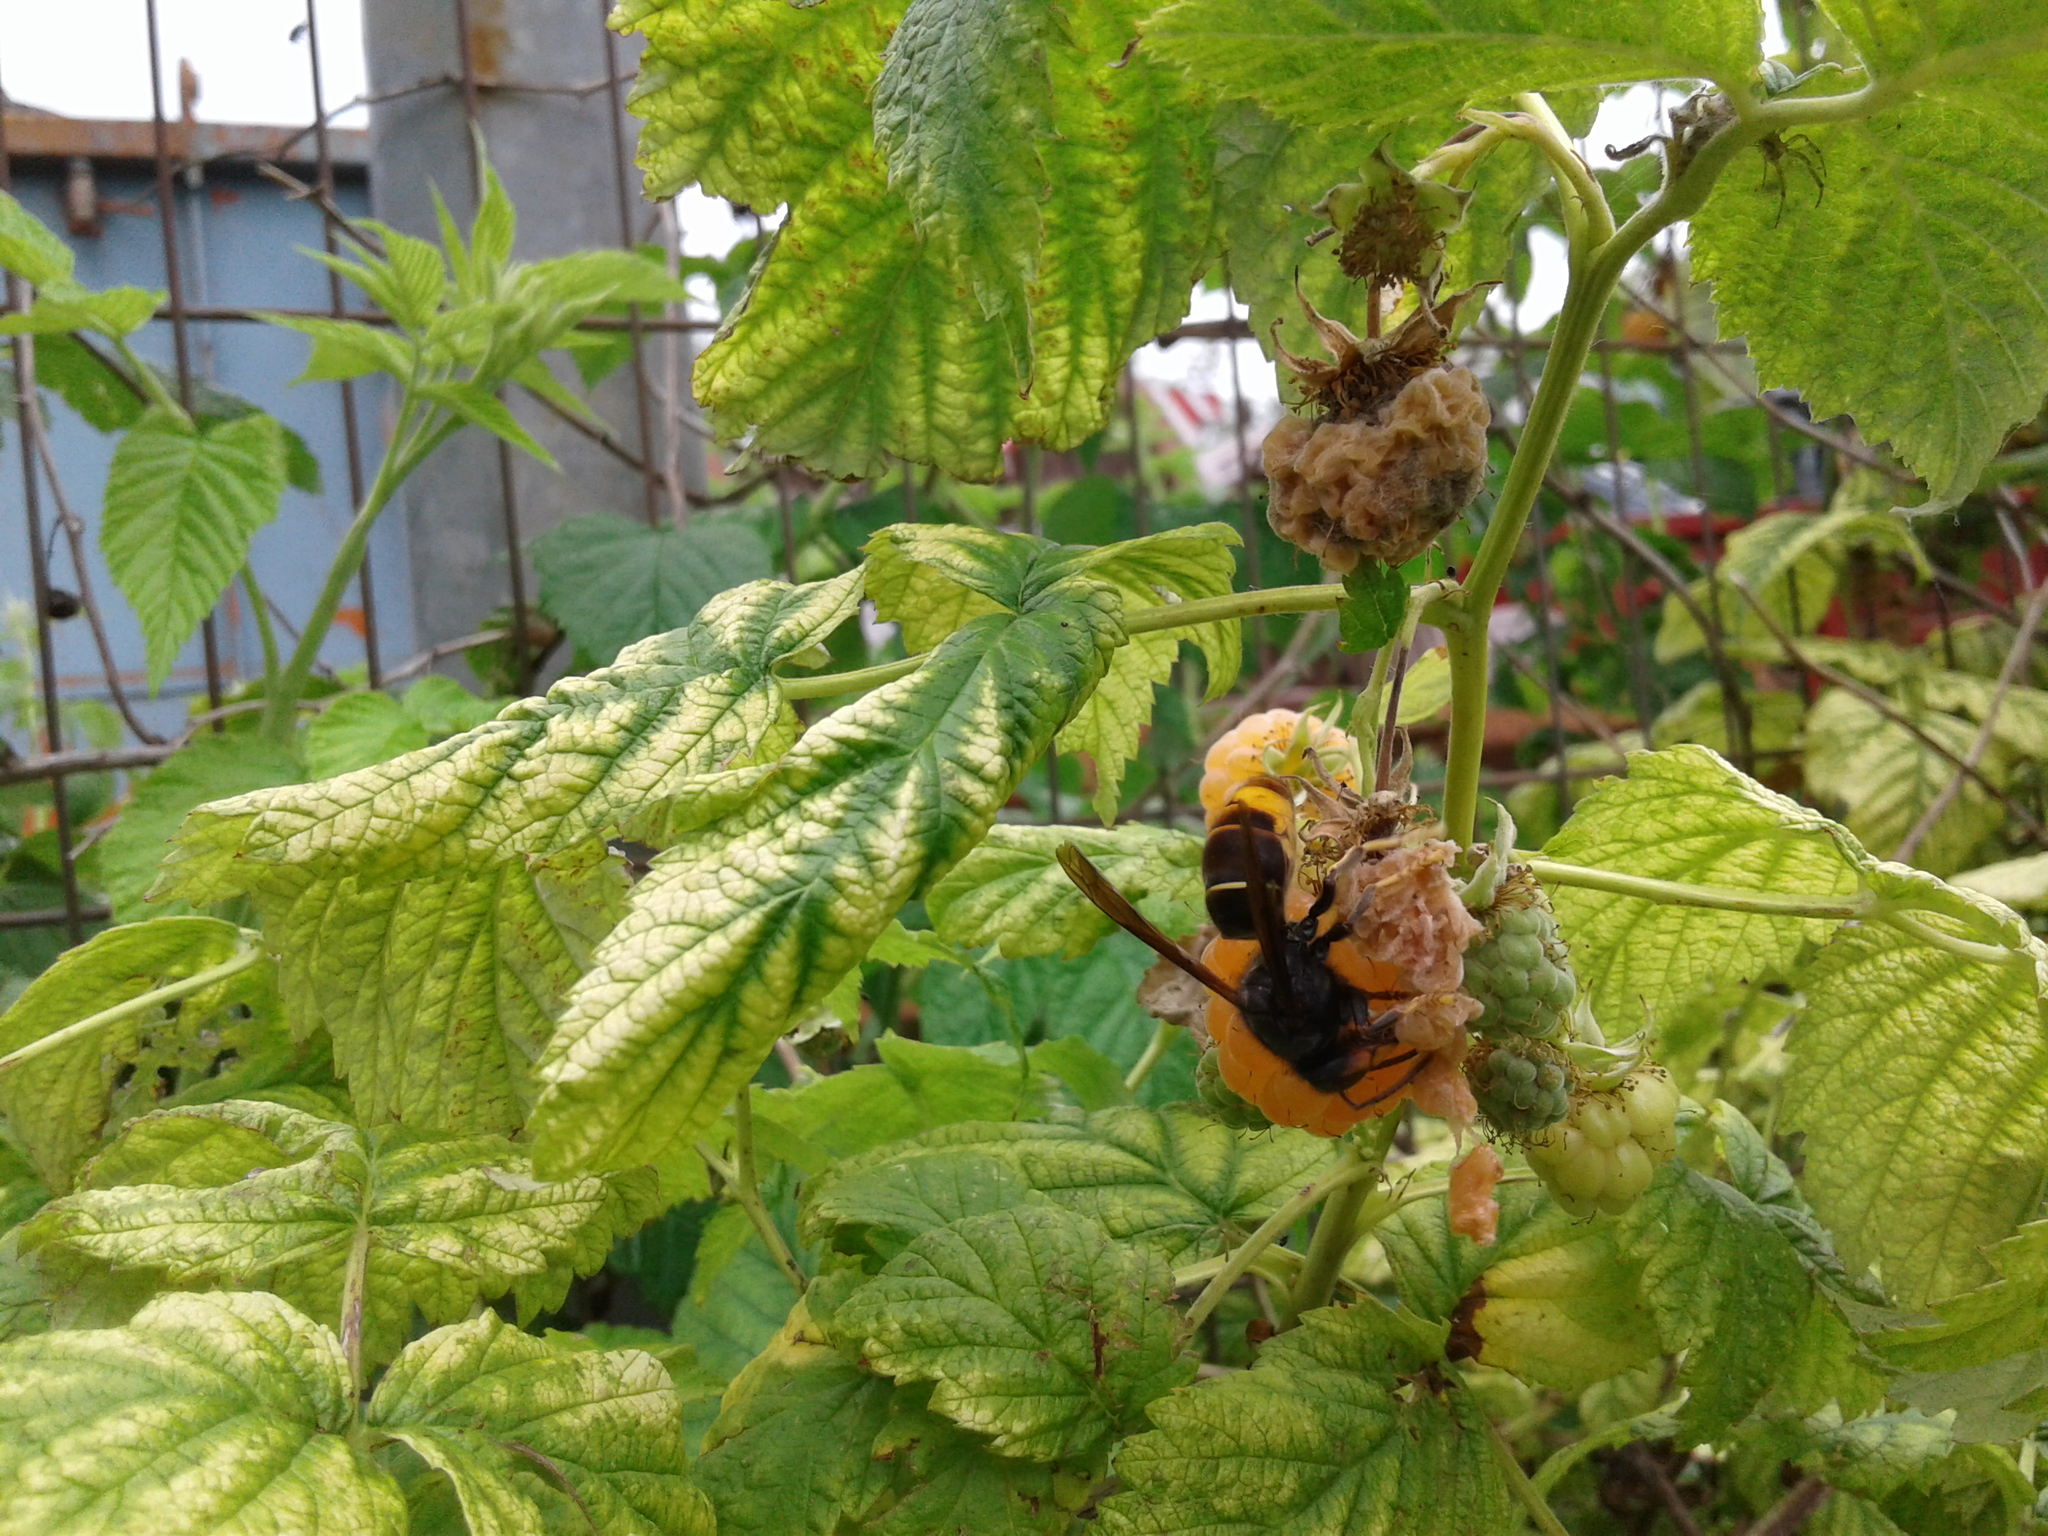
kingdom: Animalia
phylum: Arthropoda
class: Insecta
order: Hymenoptera
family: Vespidae
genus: Vespa
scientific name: Vespa velutina
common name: Asian hornet
